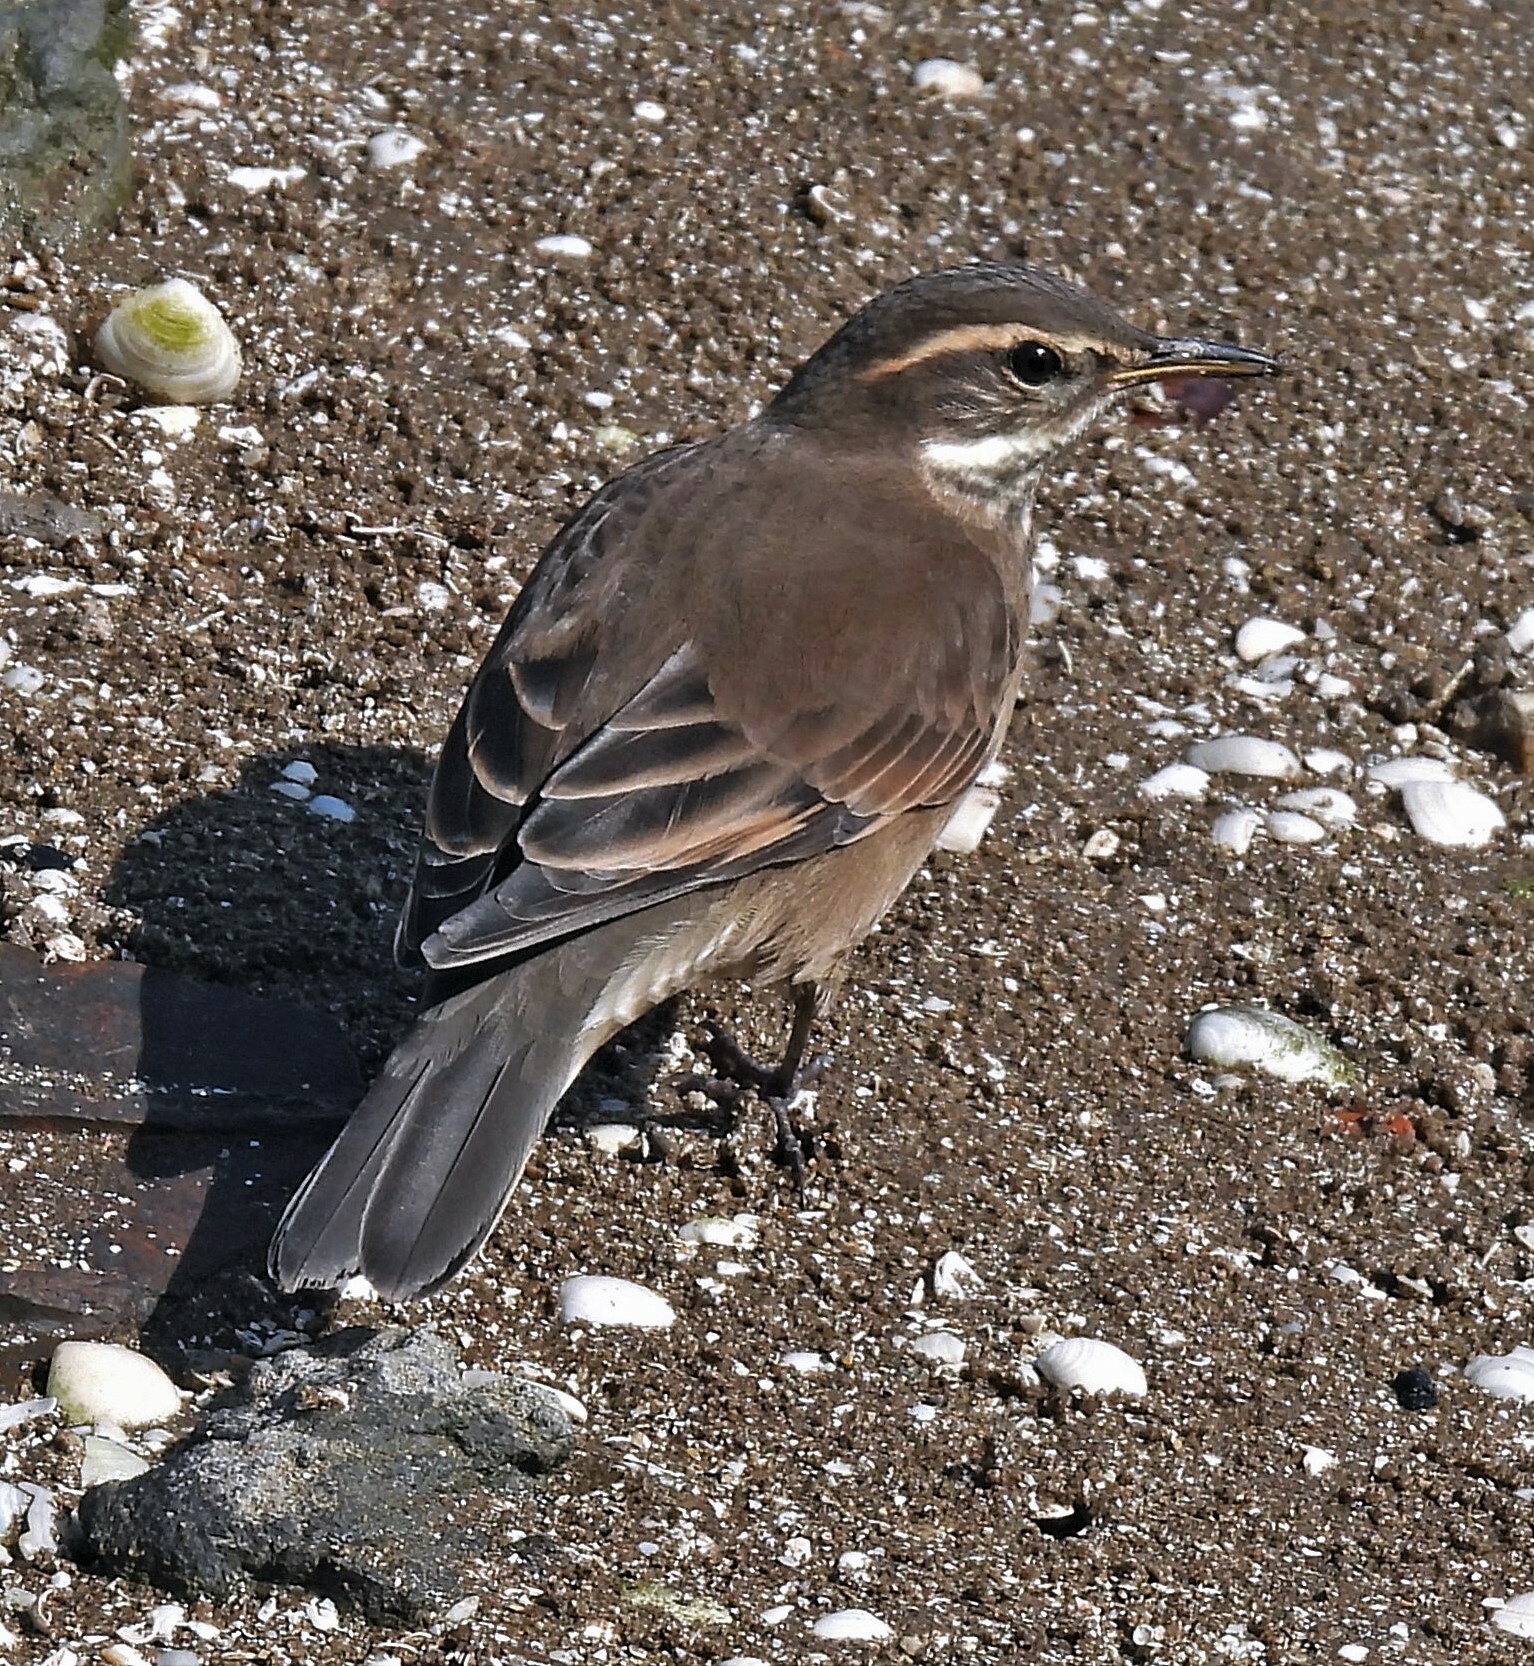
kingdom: Animalia
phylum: Chordata
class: Aves
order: Passeriformes
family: Furnariidae
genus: Cinclodes
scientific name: Cinclodes fuscus
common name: Buff-winged cinclodes
